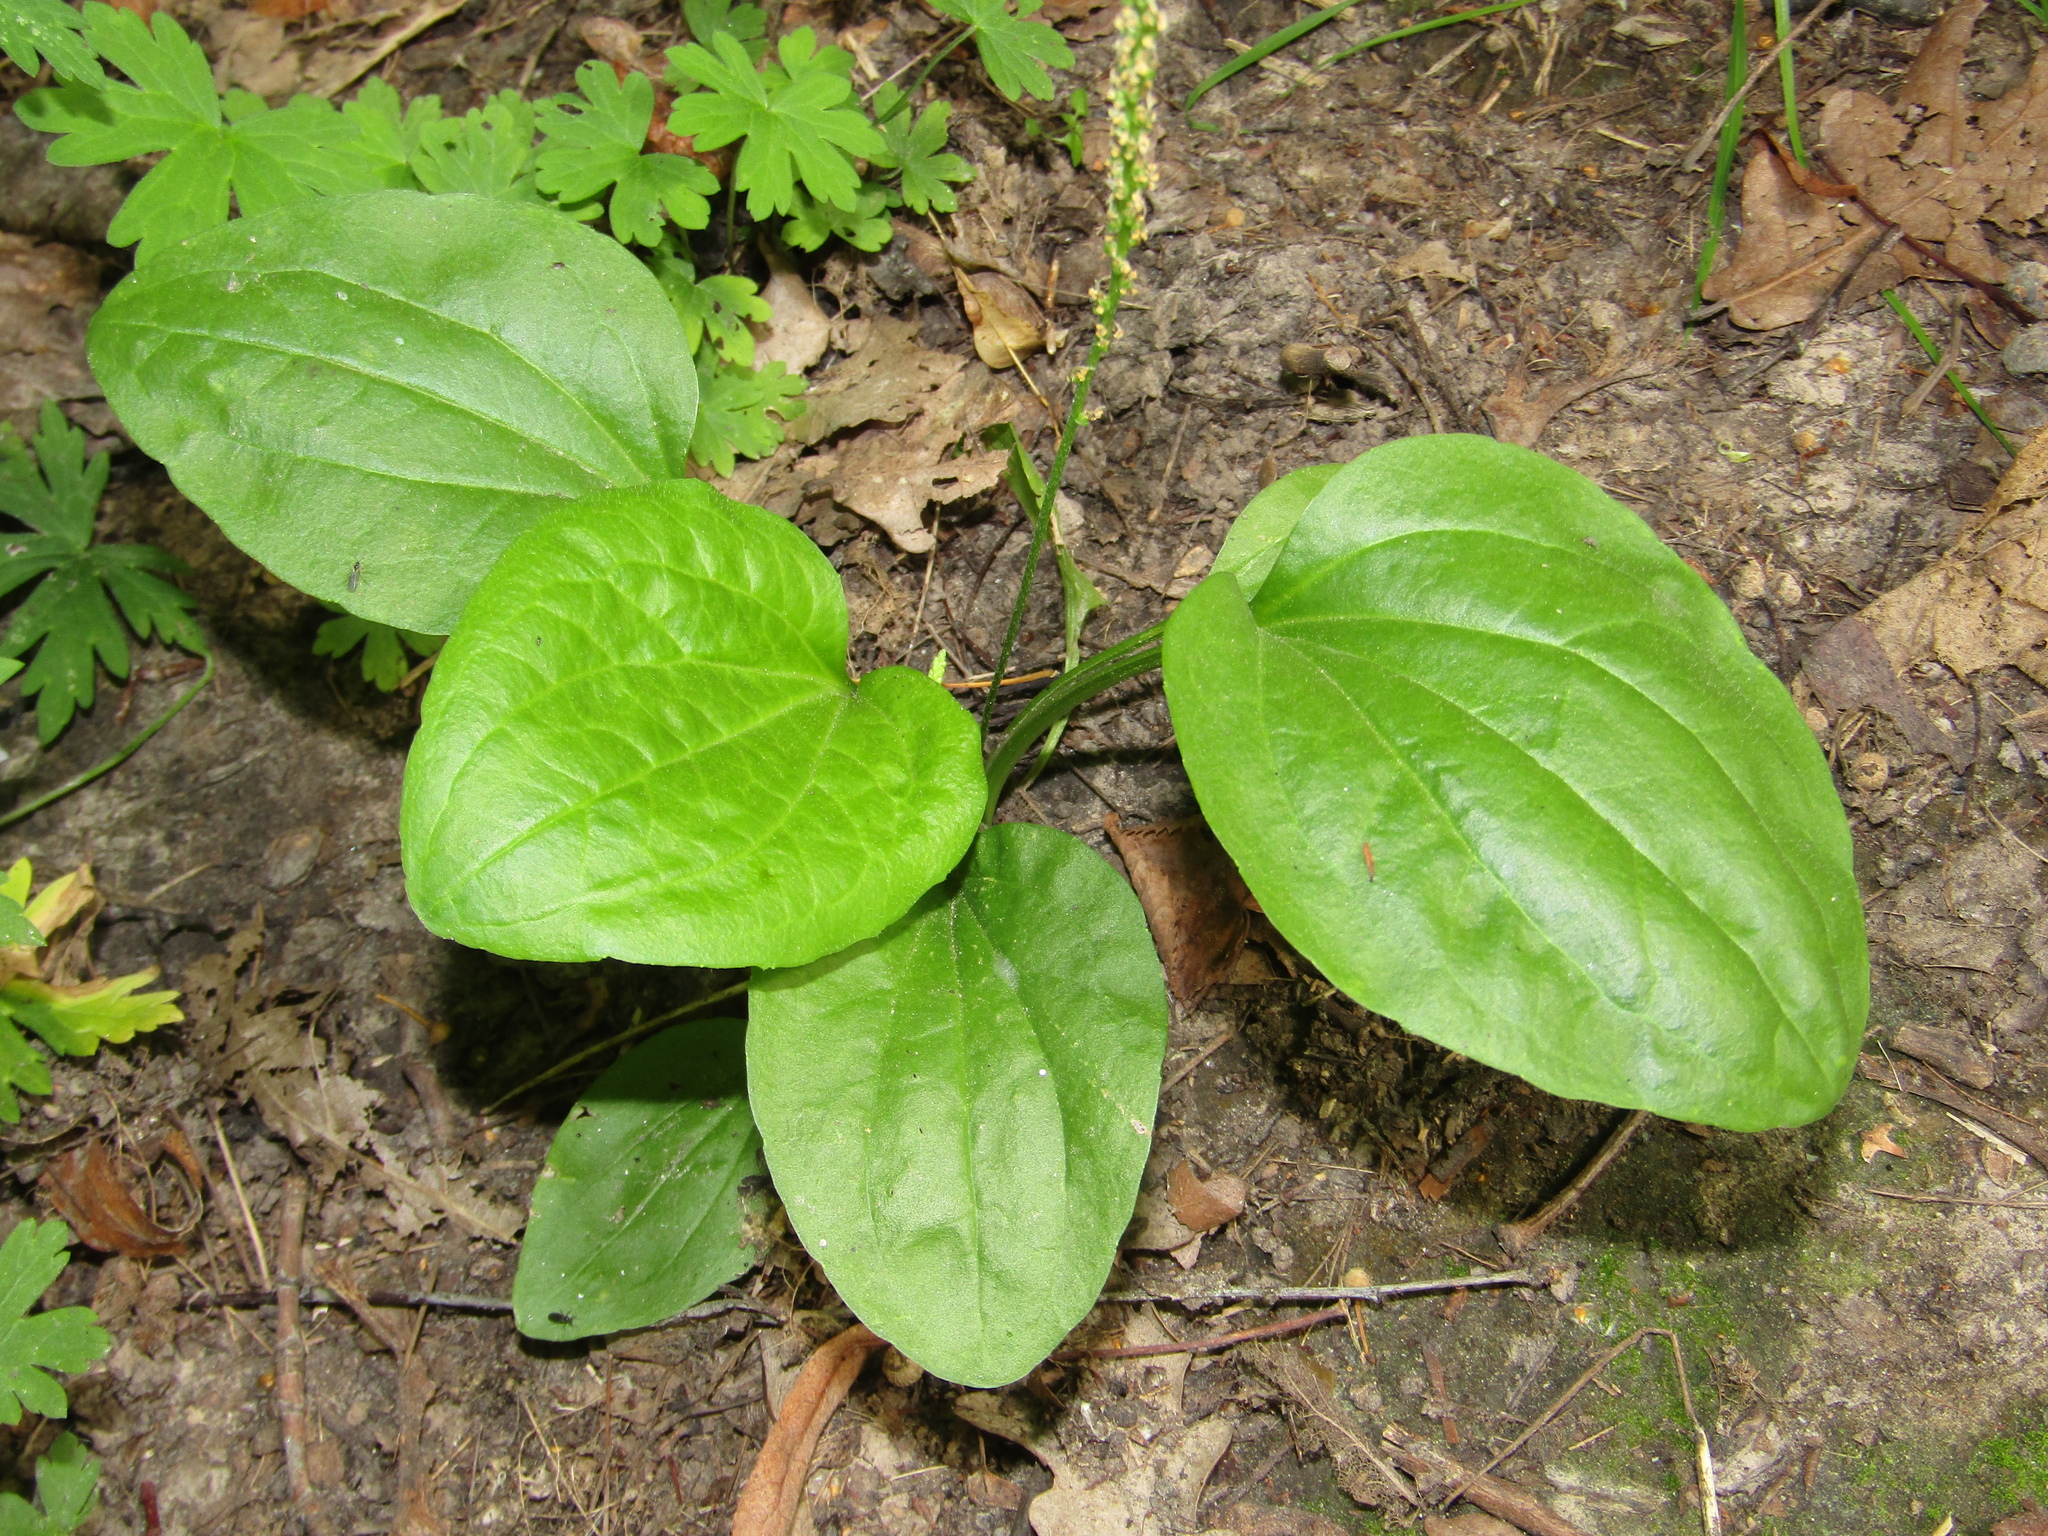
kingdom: Plantae
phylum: Tracheophyta
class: Magnoliopsida
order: Lamiales
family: Plantaginaceae
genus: Plantago
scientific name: Plantago major
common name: Common plantain
